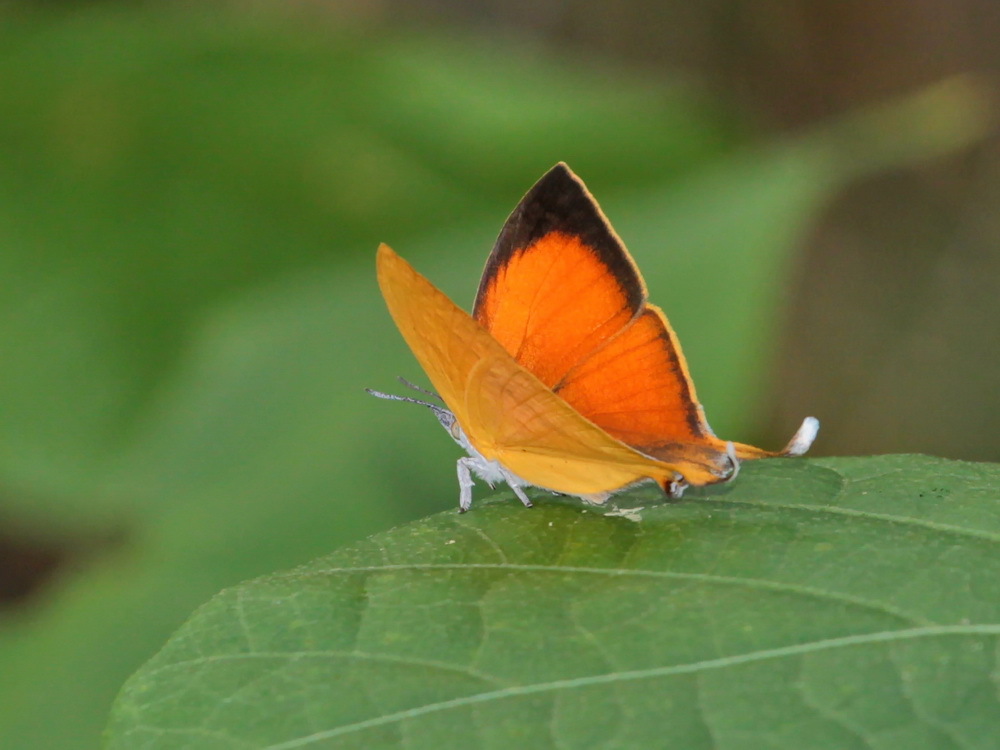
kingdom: Animalia
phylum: Arthropoda
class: Insecta
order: Lepidoptera
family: Lycaenidae
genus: Loxura
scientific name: Loxura atymnus
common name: Common yamfly
